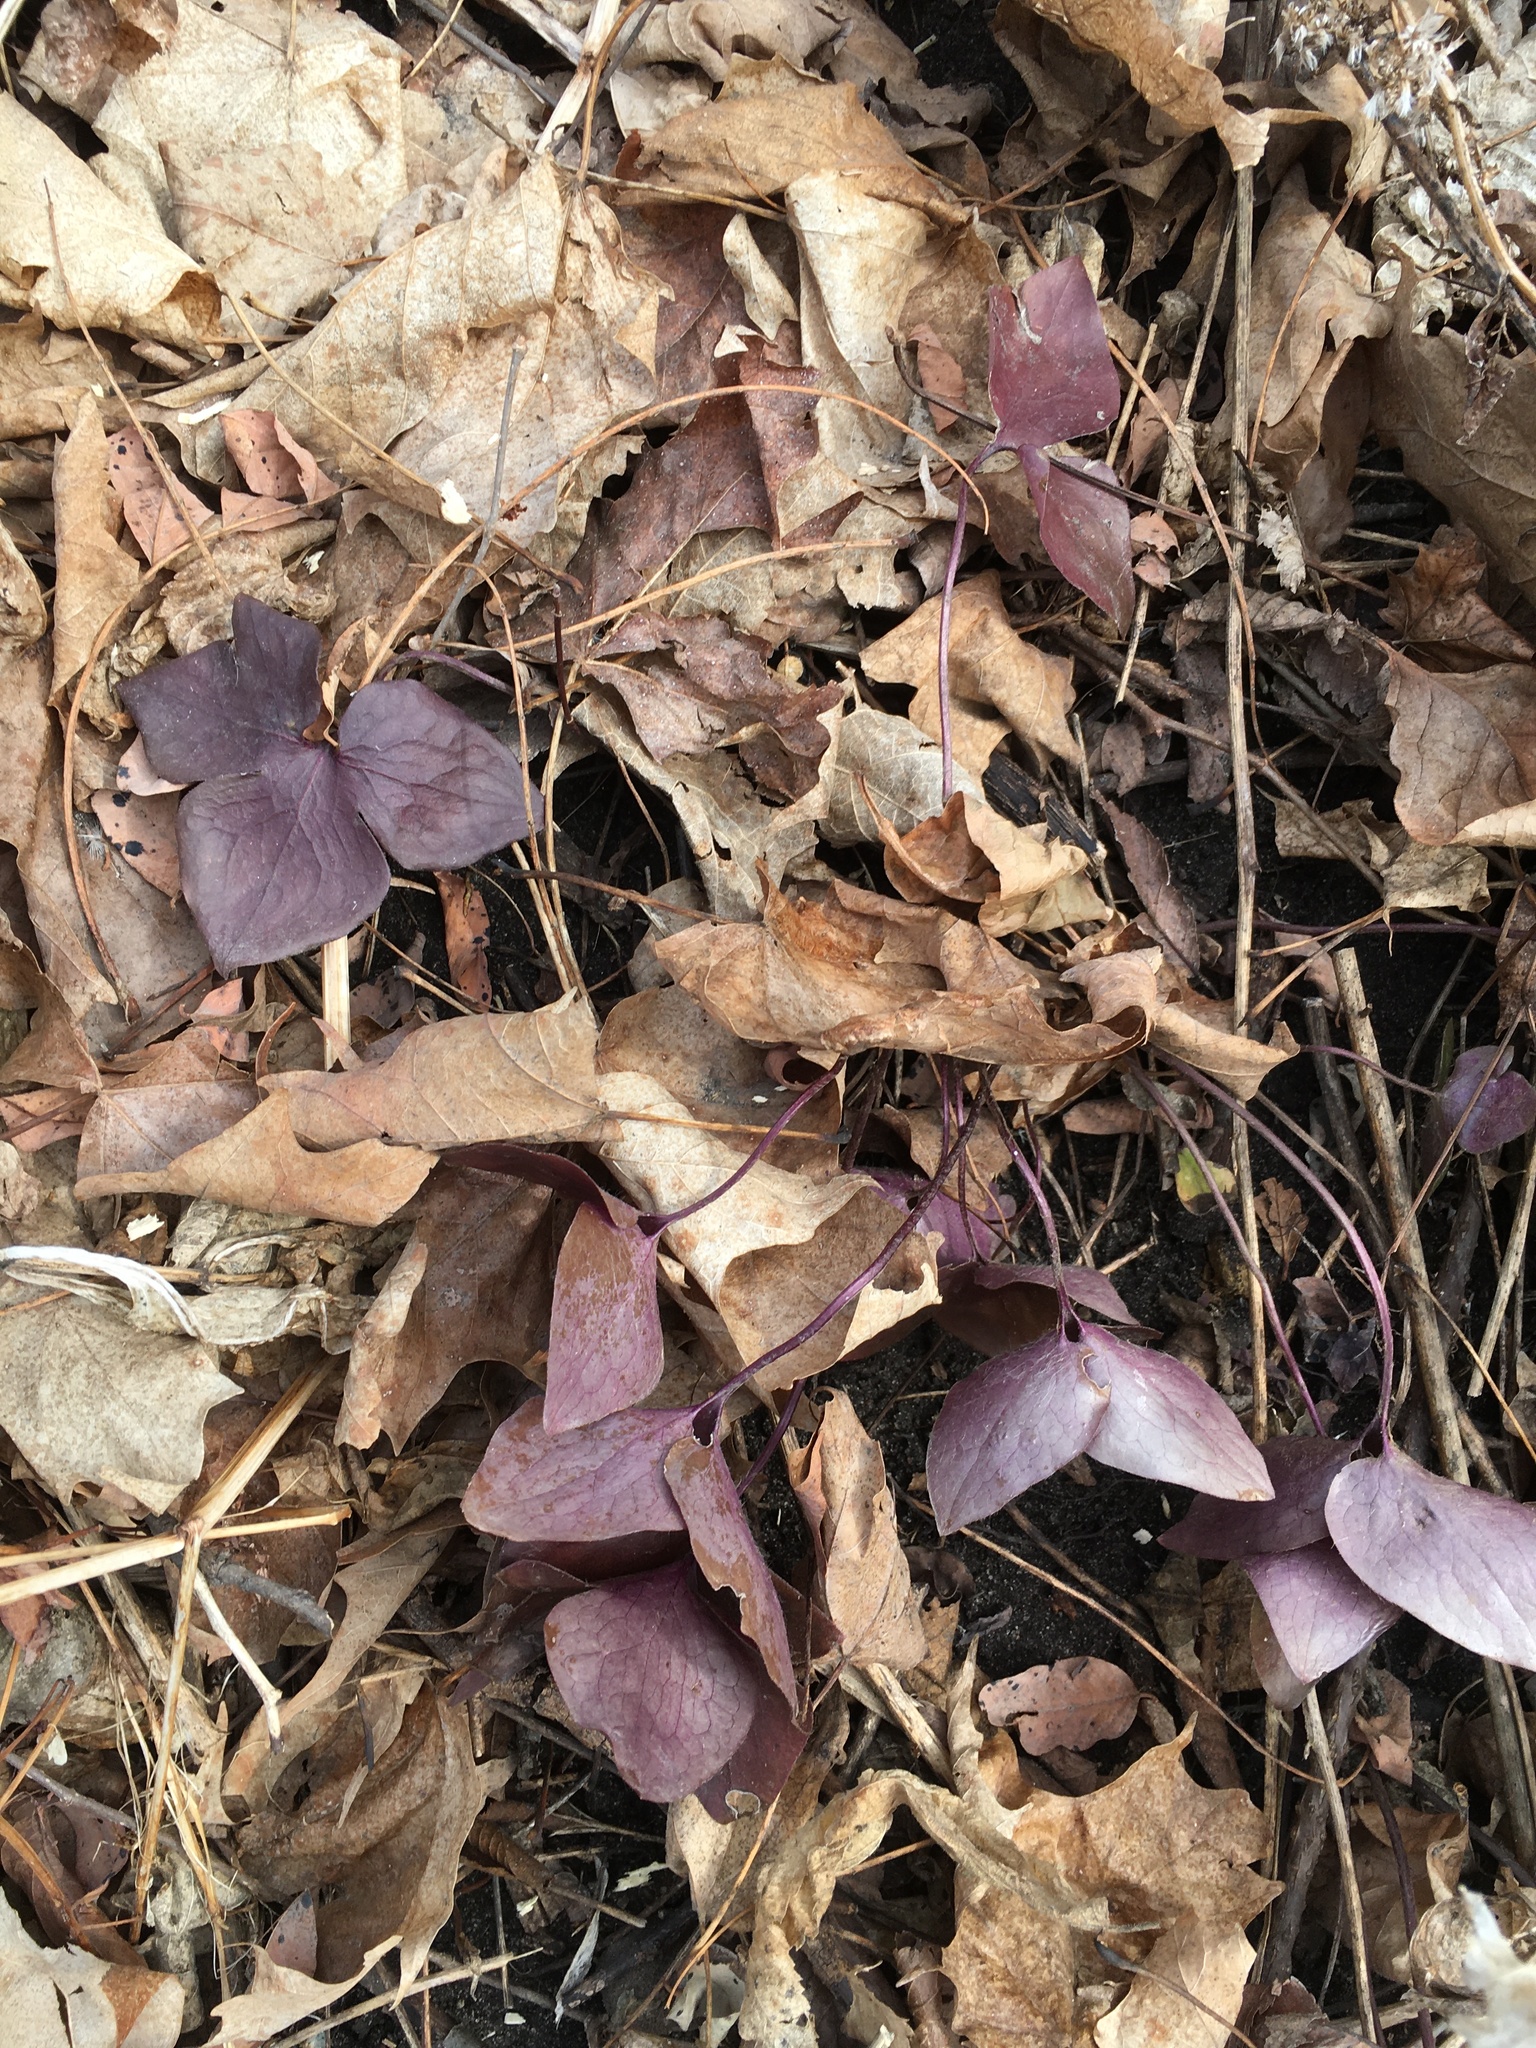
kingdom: Plantae
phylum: Tracheophyta
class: Magnoliopsida
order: Ranunculales
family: Ranunculaceae
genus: Hepatica
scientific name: Hepatica acutiloba
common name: Sharp-lobed hepatica
